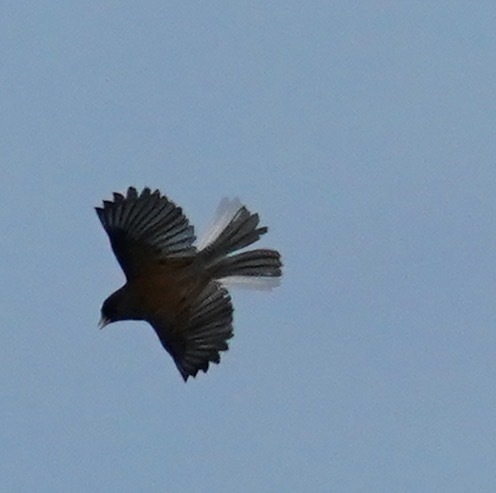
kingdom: Animalia
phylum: Chordata
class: Aves
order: Passeriformes
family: Passerellidae
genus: Junco
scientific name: Junco hyemalis
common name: Dark-eyed junco
